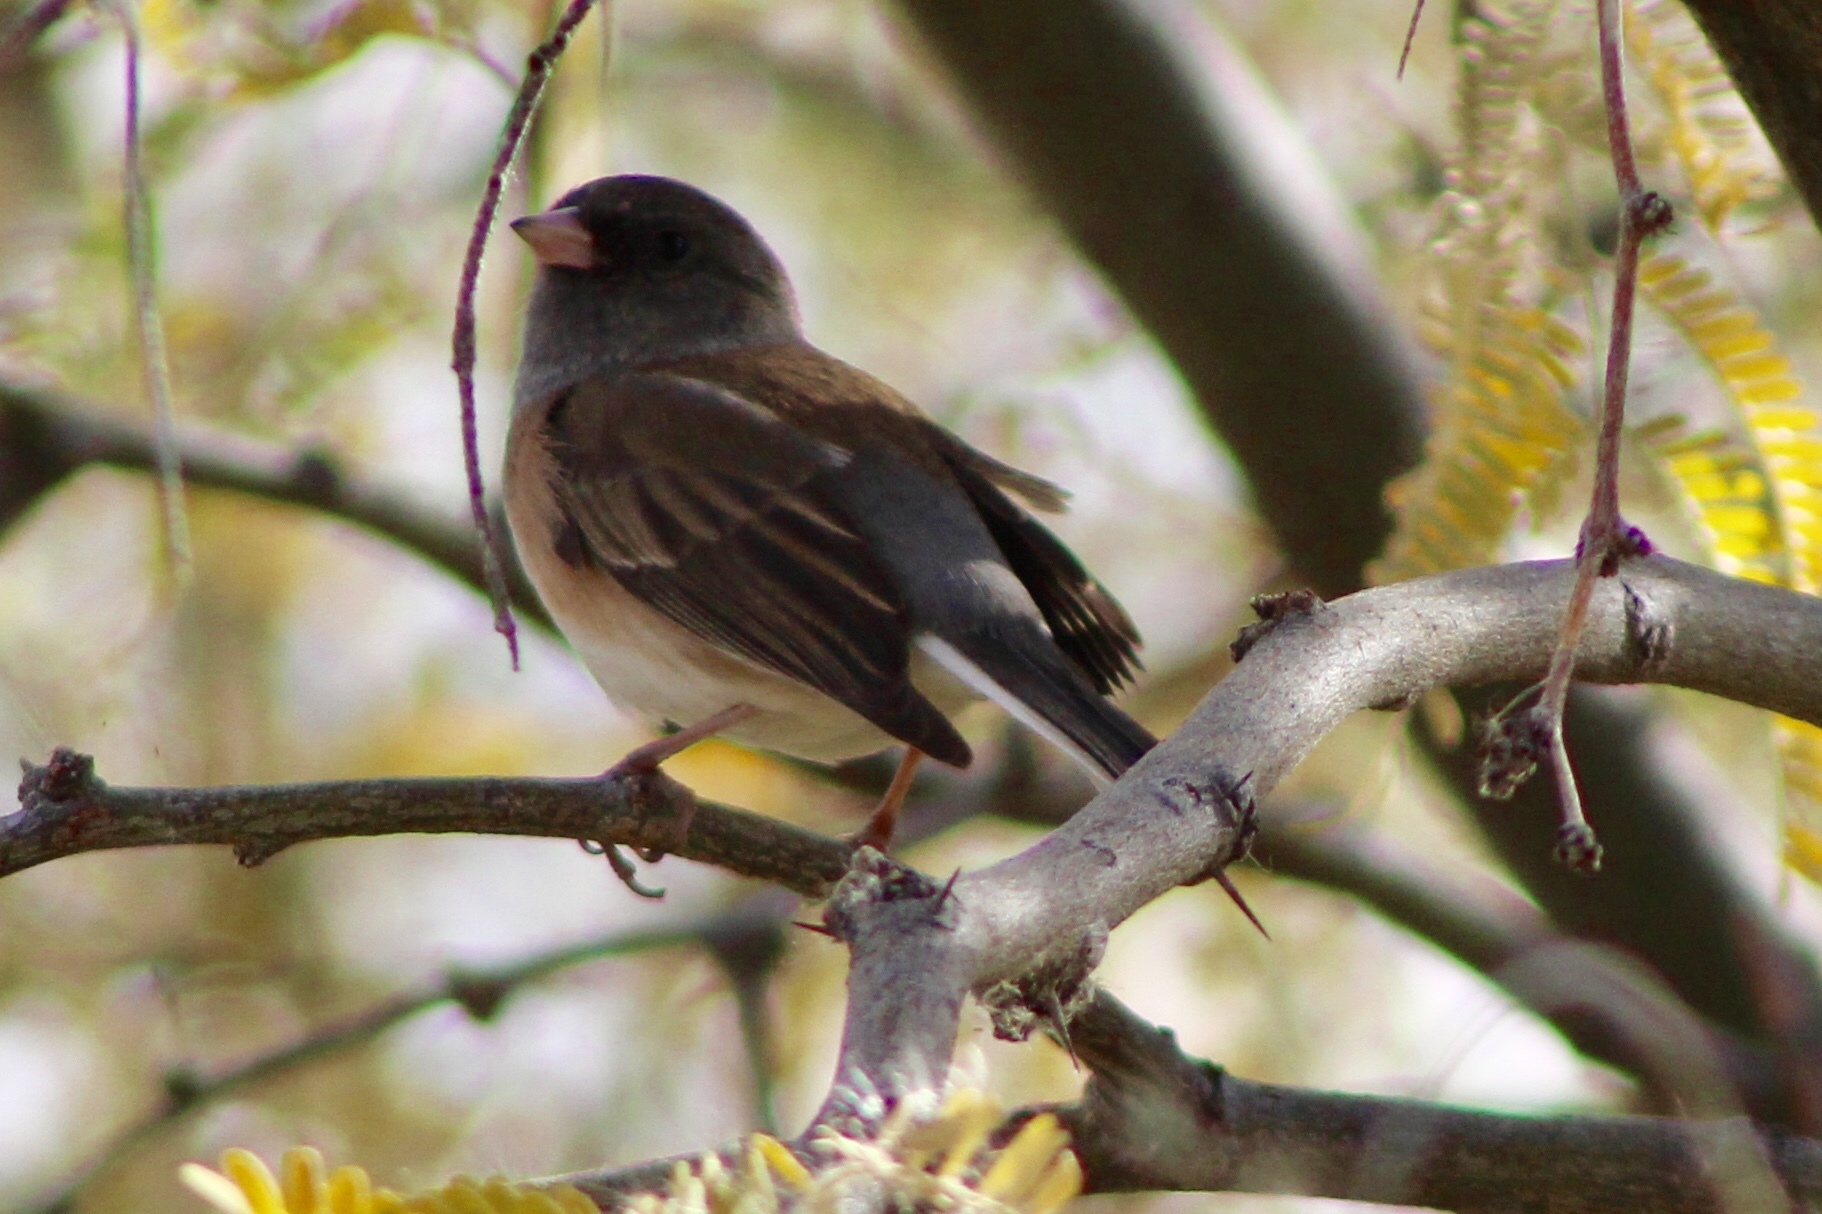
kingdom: Animalia
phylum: Chordata
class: Aves
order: Passeriformes
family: Passerellidae
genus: Junco
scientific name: Junco hyemalis
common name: Dark-eyed junco
